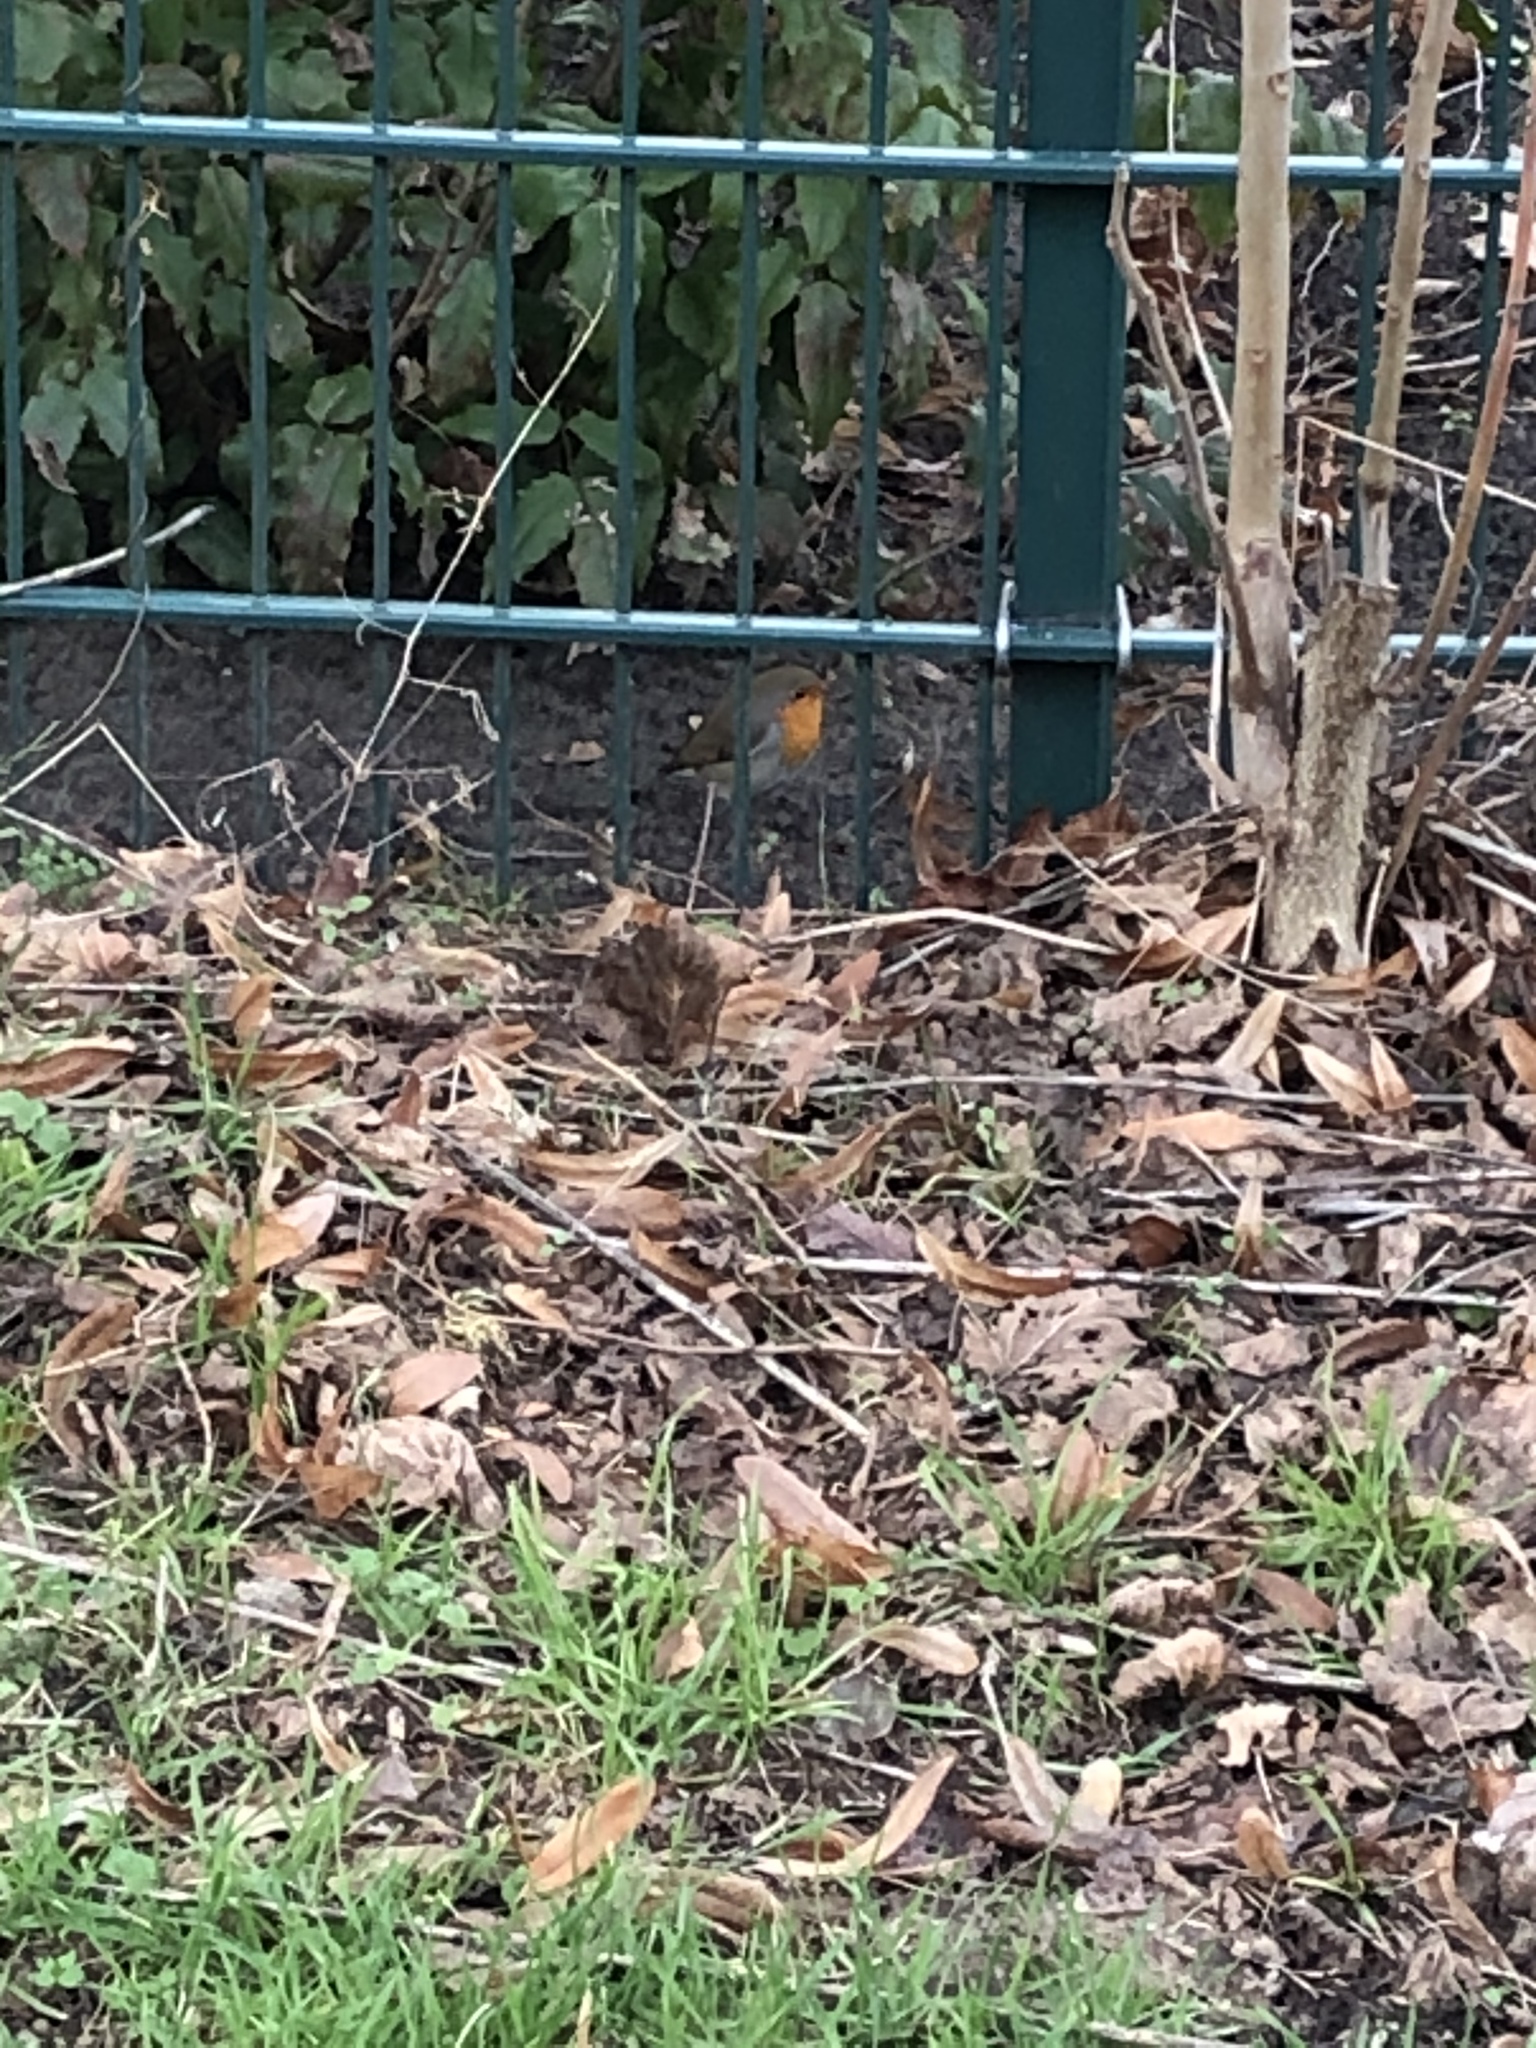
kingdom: Animalia
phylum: Chordata
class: Aves
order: Passeriformes
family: Muscicapidae
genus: Erithacus
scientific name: Erithacus rubecula
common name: European robin
